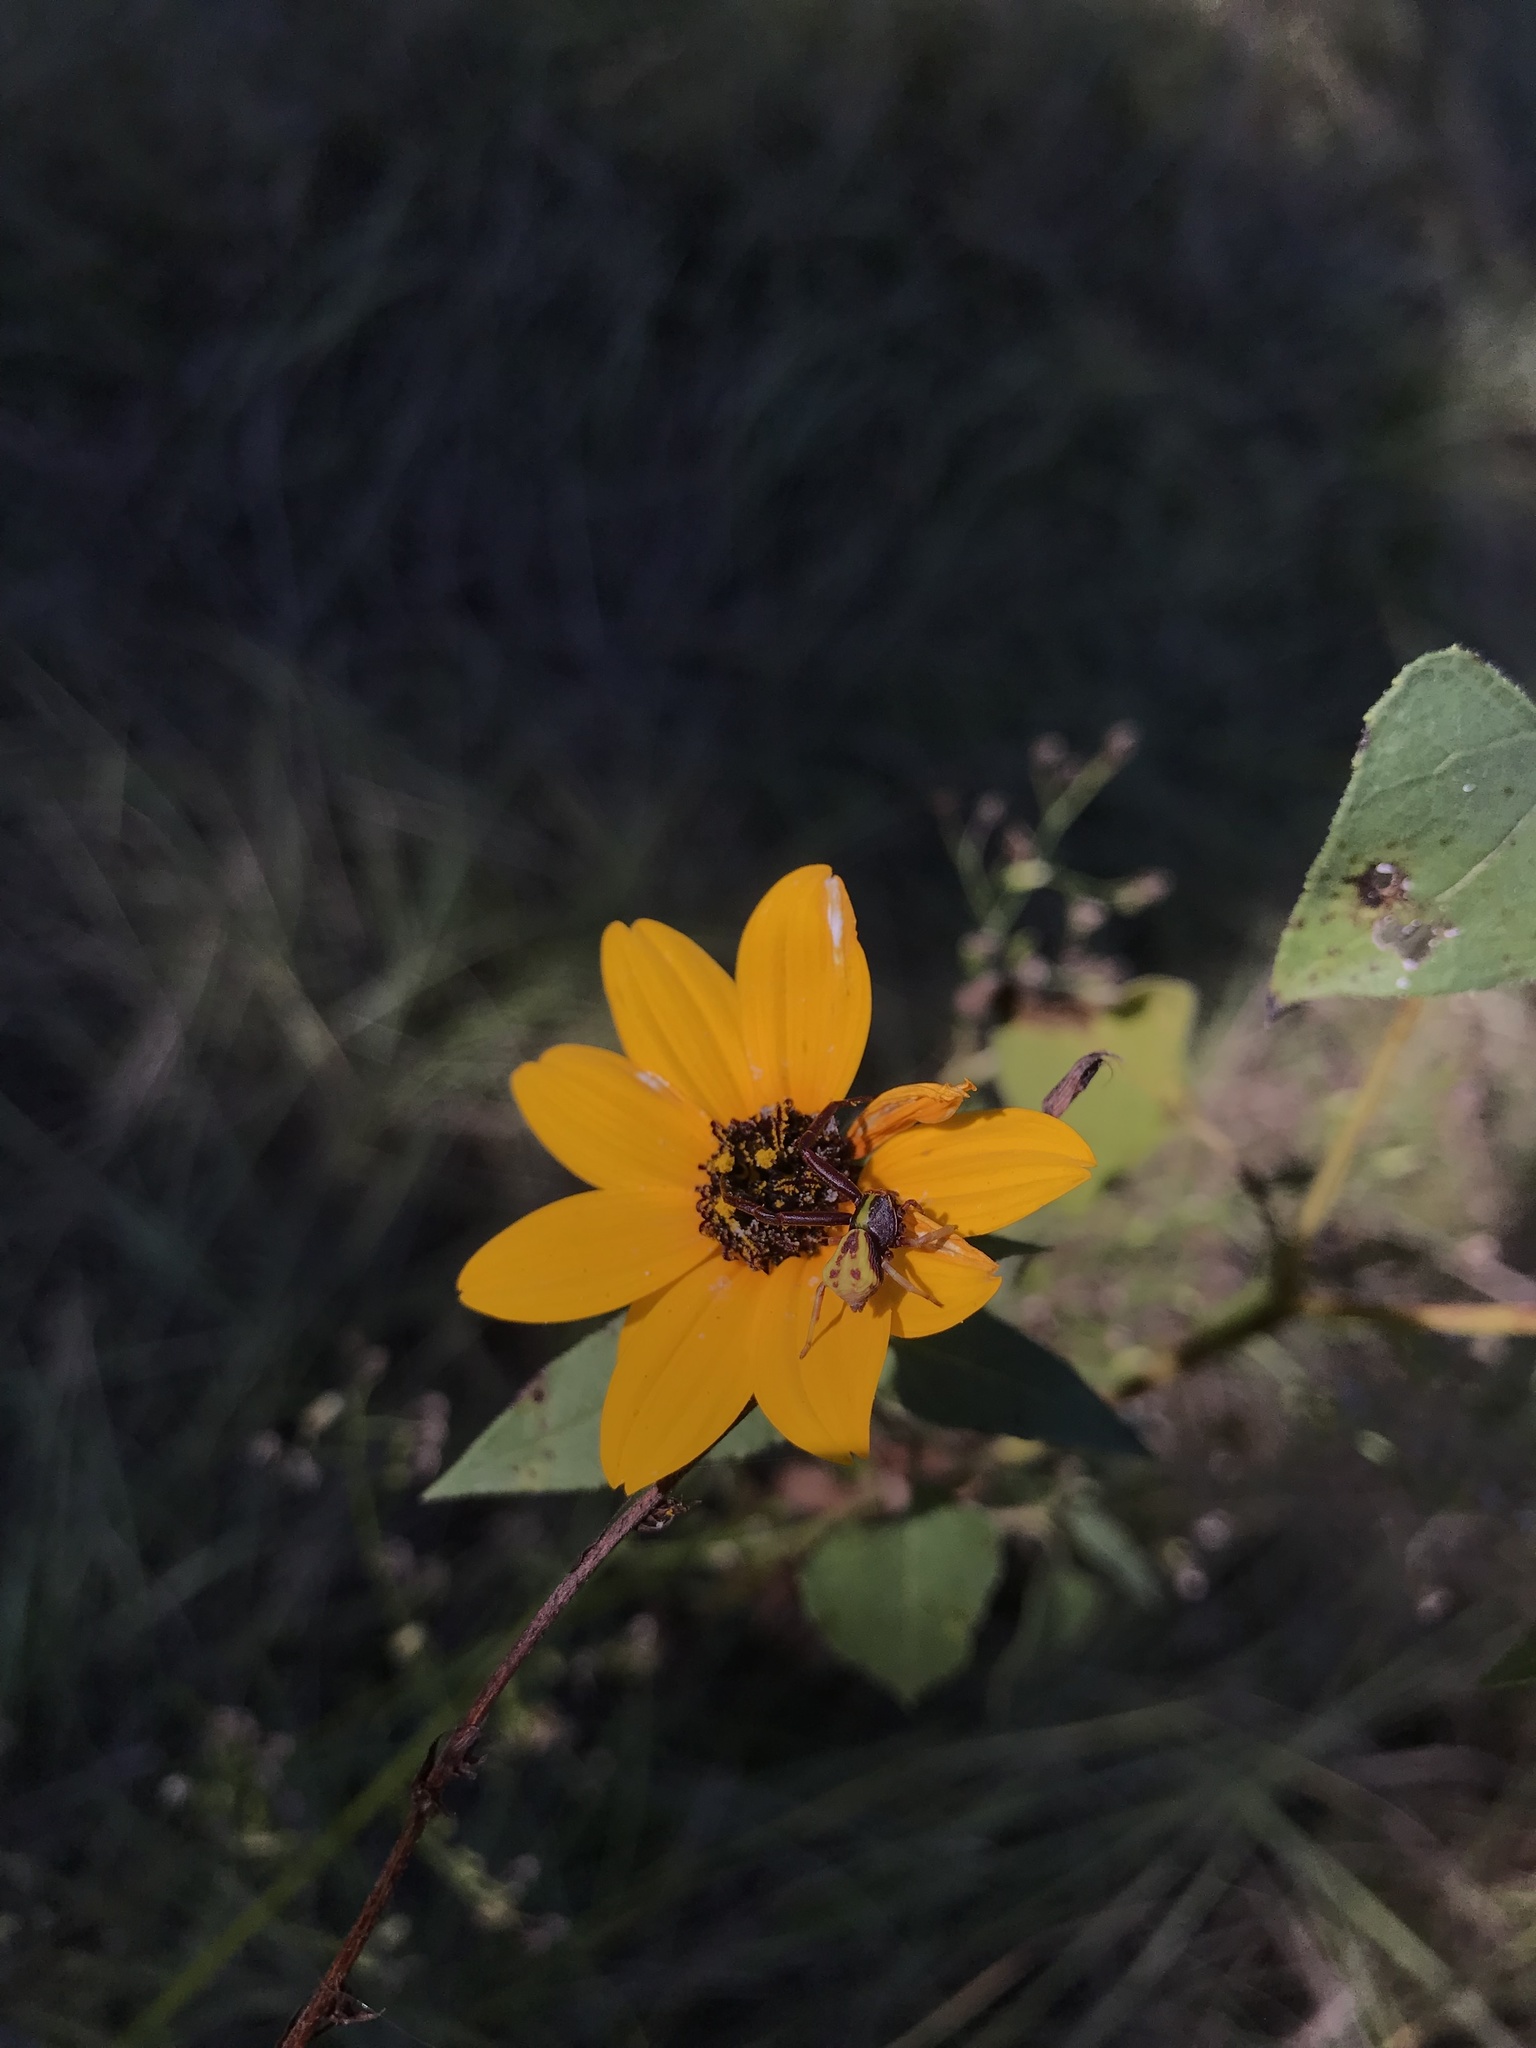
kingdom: Animalia
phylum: Arthropoda
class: Arachnida
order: Araneae
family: Thomisidae
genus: Misumenoides
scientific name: Misumenoides formosipes
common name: White-banded crab spider
